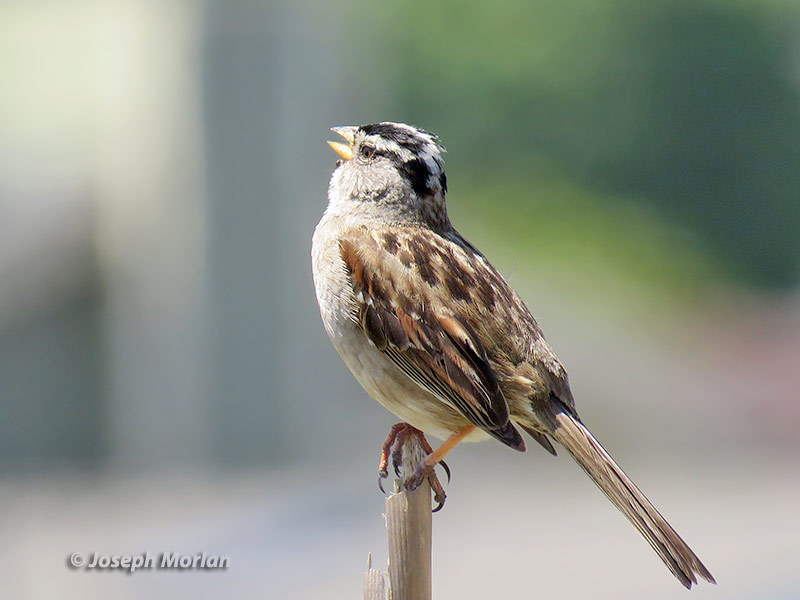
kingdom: Animalia
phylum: Chordata
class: Aves
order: Passeriformes
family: Passerellidae
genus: Zonotrichia
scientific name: Zonotrichia leucophrys
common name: White-crowned sparrow
